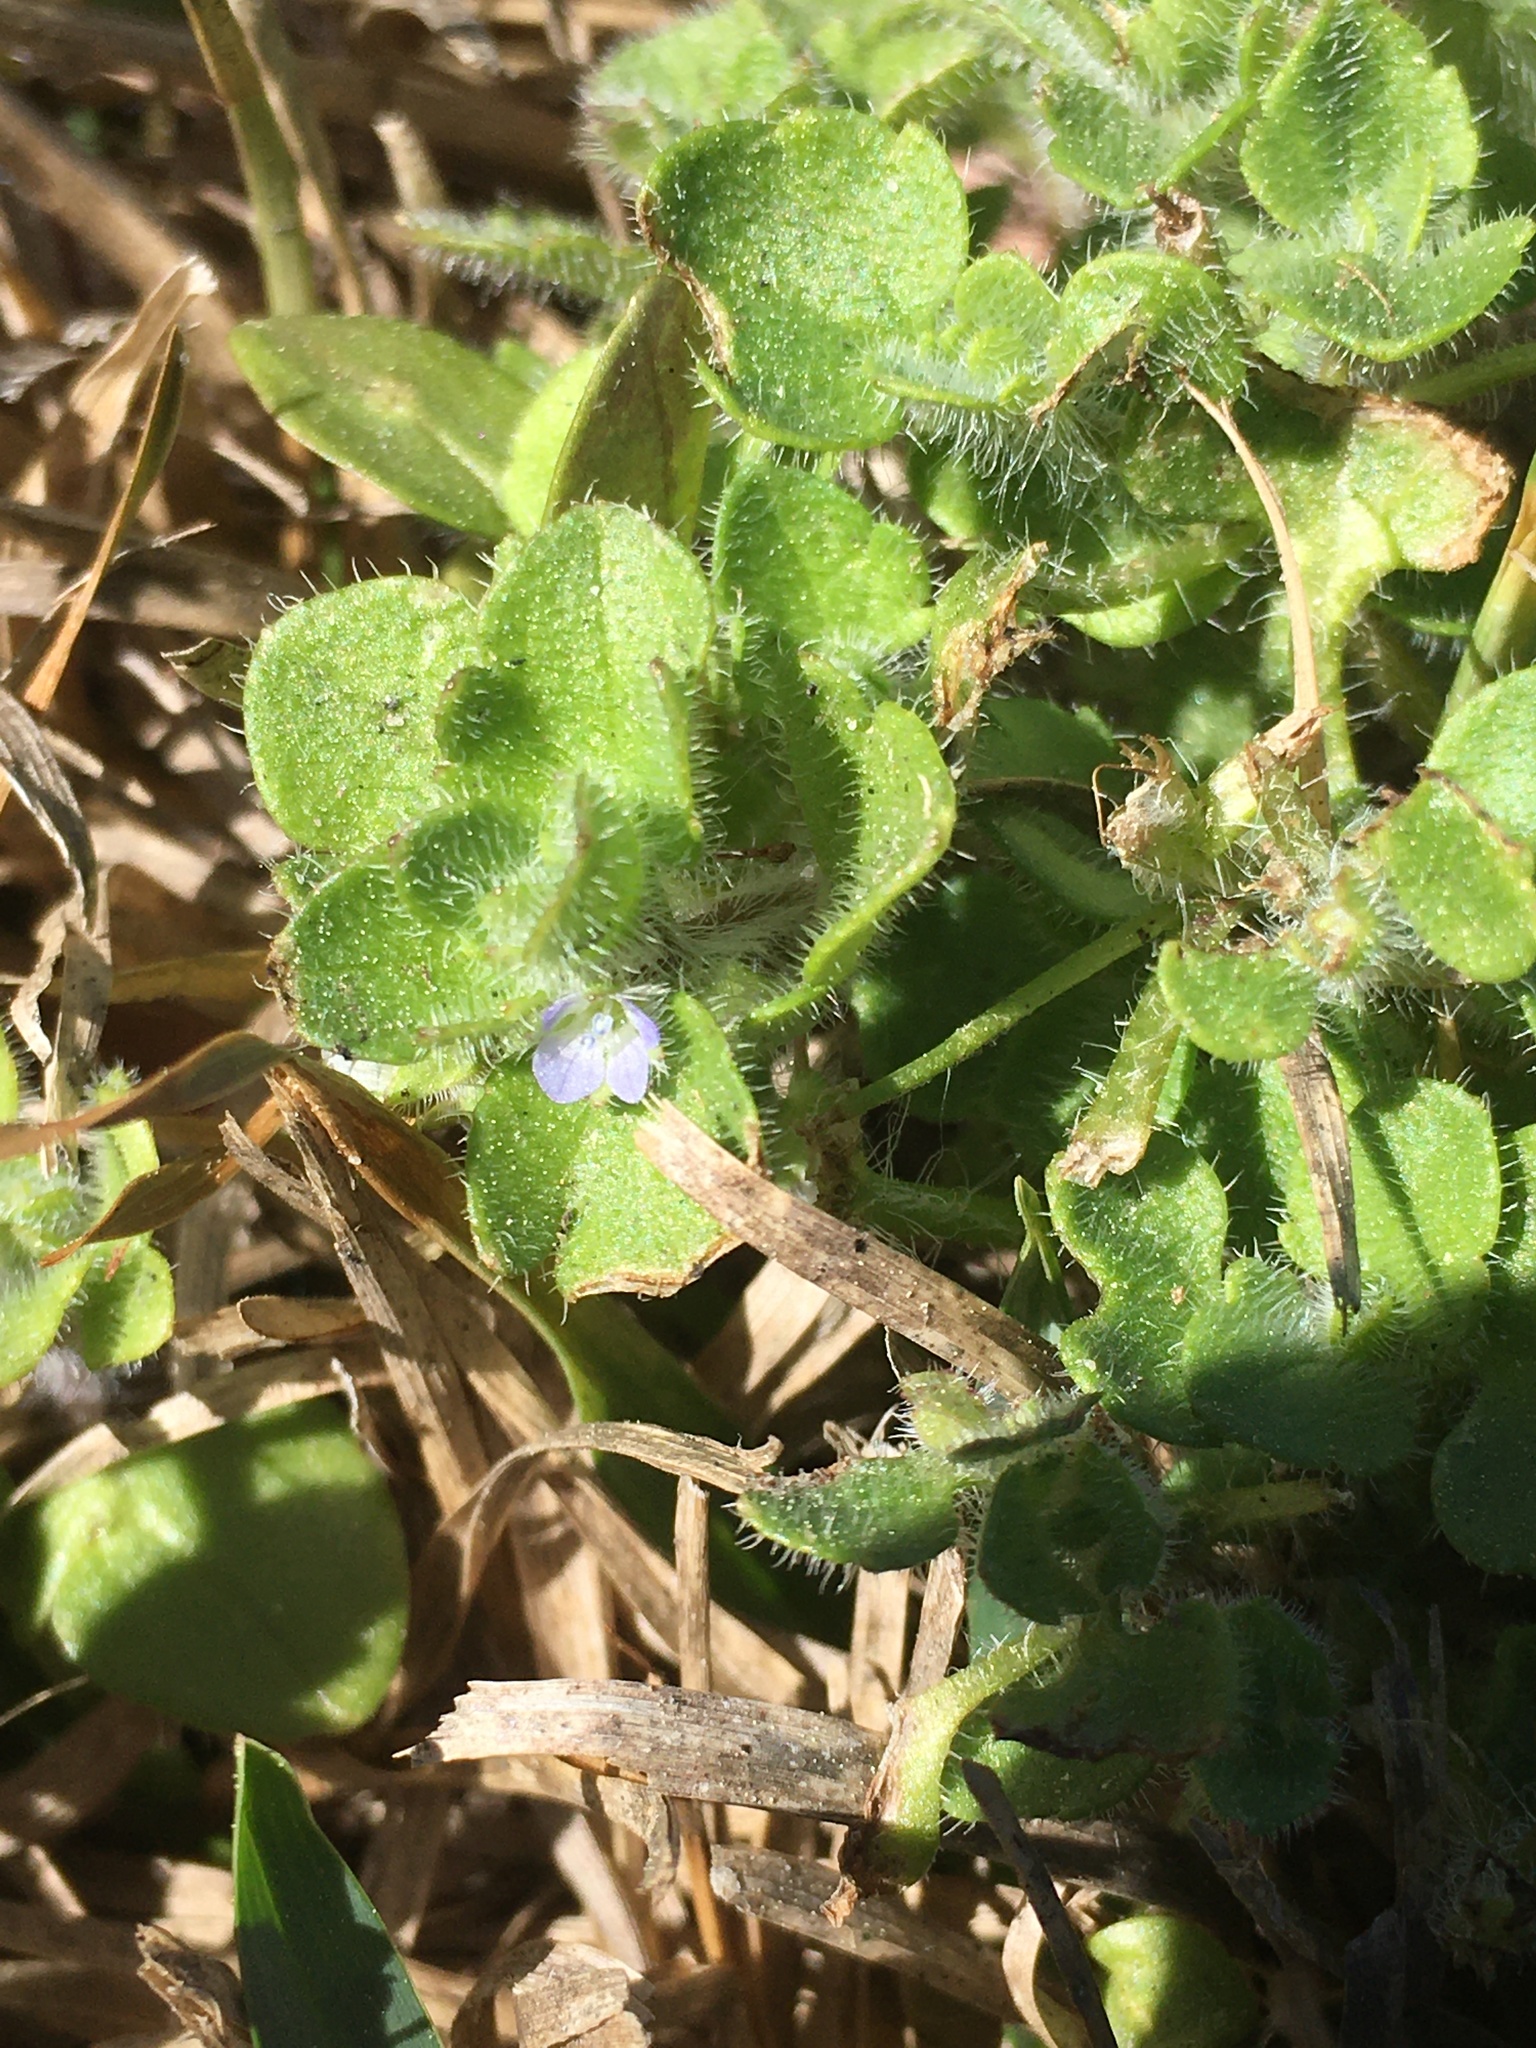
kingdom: Plantae
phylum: Tracheophyta
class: Magnoliopsida
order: Lamiales
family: Plantaginaceae
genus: Veronica
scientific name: Veronica hederifolia
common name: Ivy-leaved speedwell
